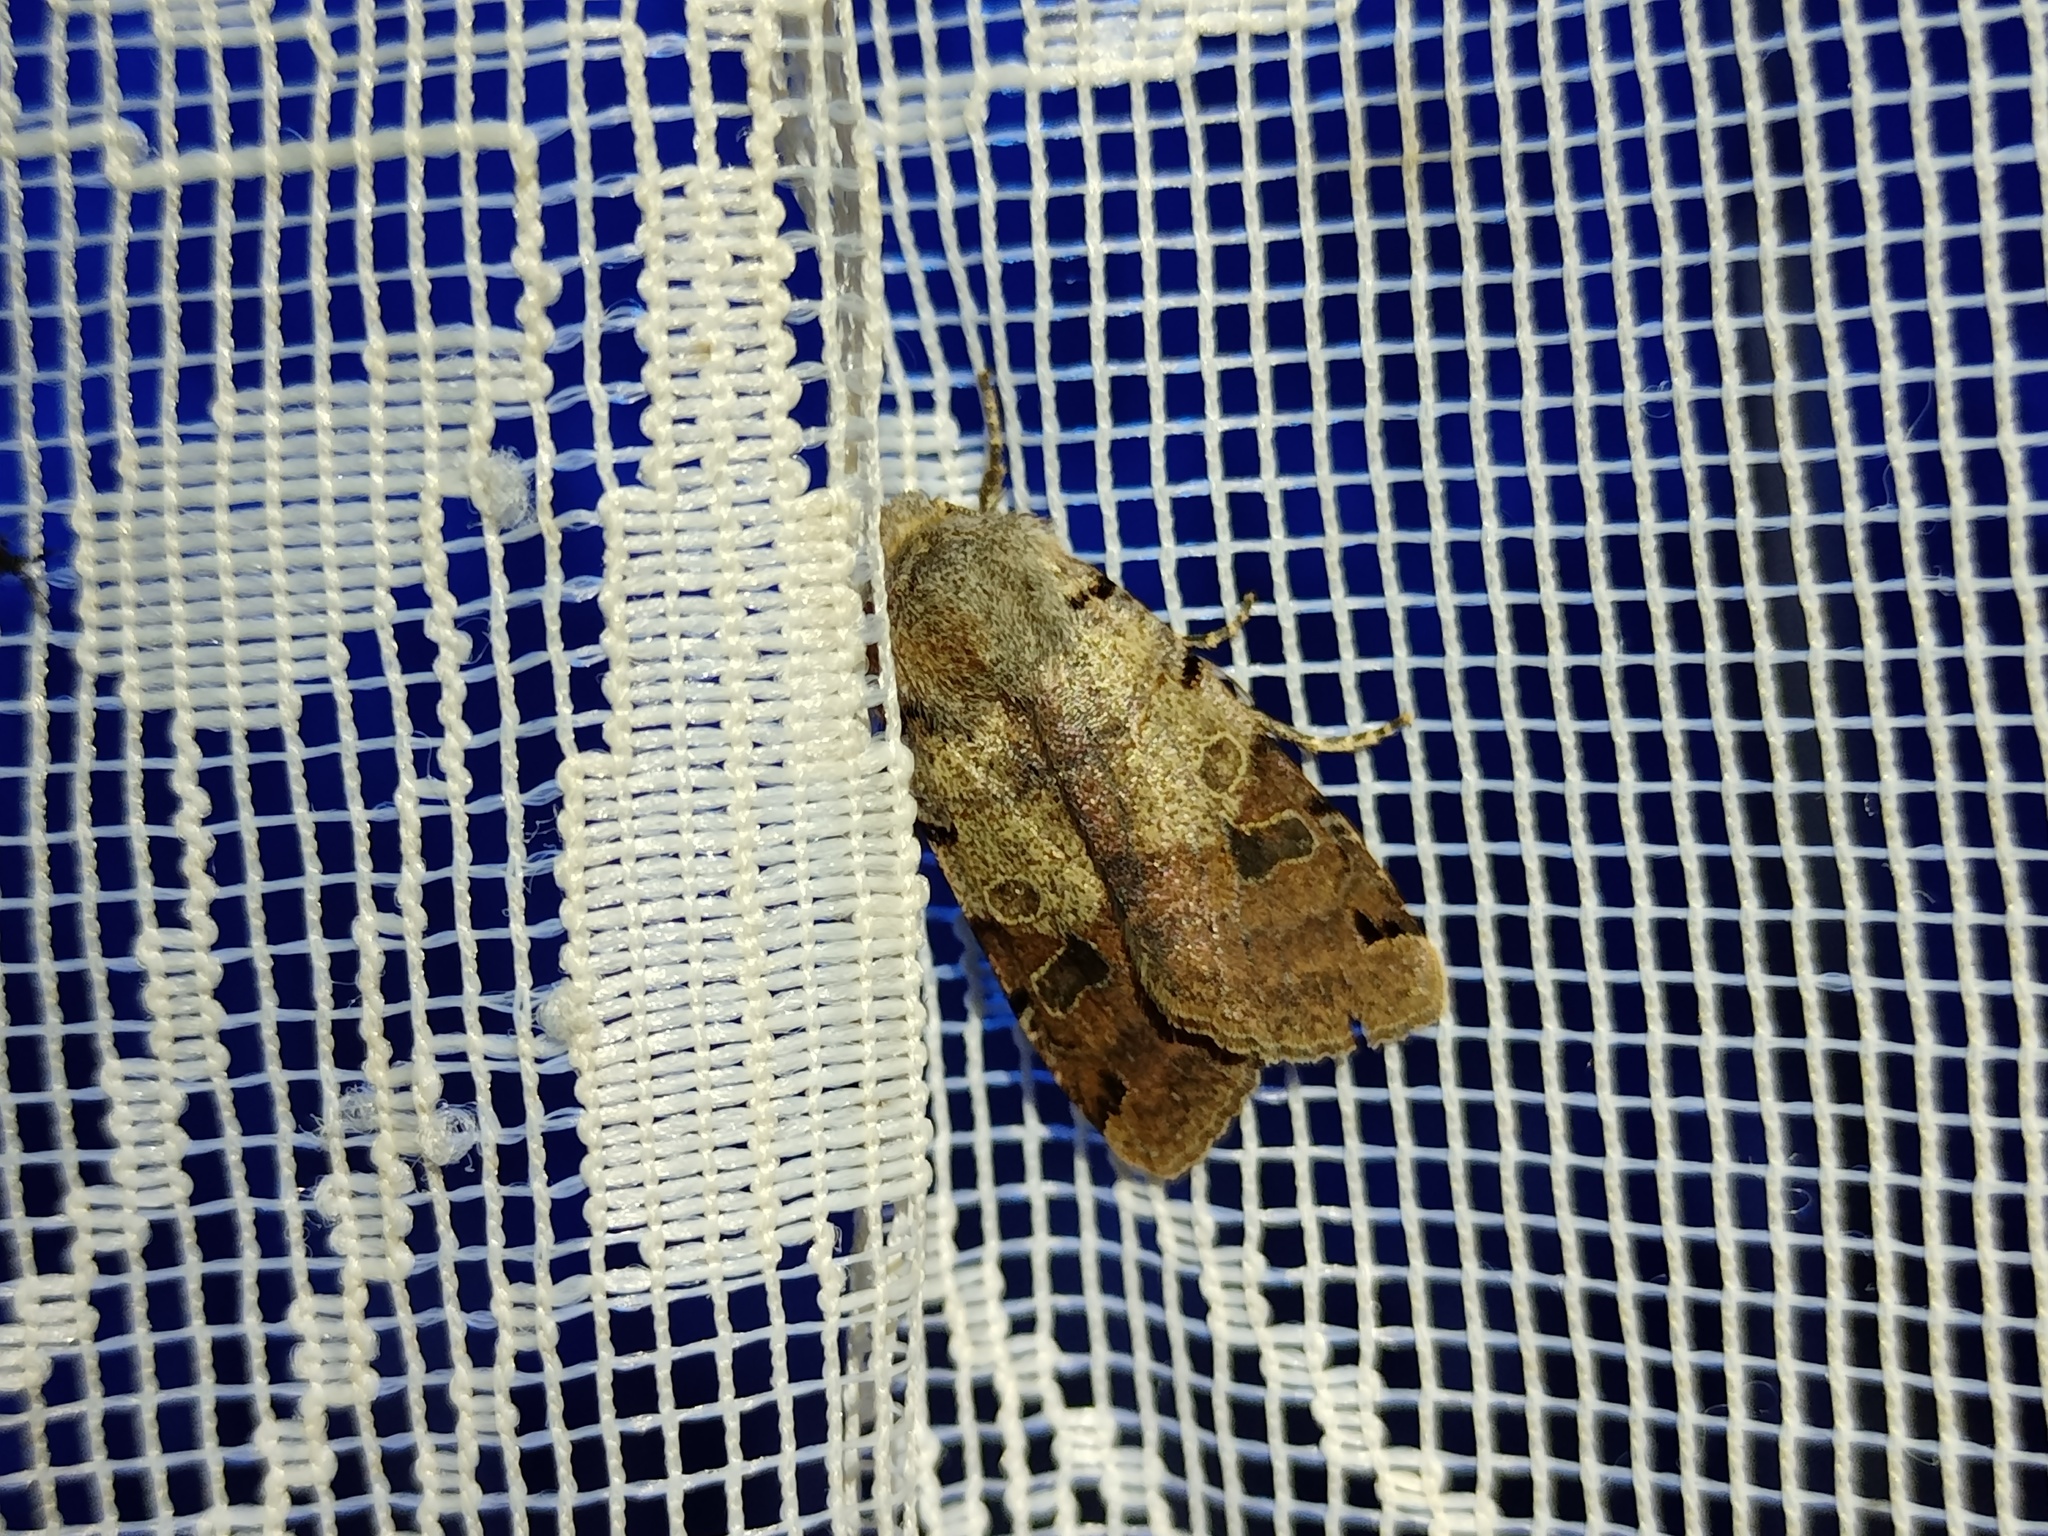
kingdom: Animalia
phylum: Arthropoda
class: Insecta
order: Lepidoptera
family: Noctuidae
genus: Agrochola
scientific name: Agrochola litura
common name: Brown-spot pinion
